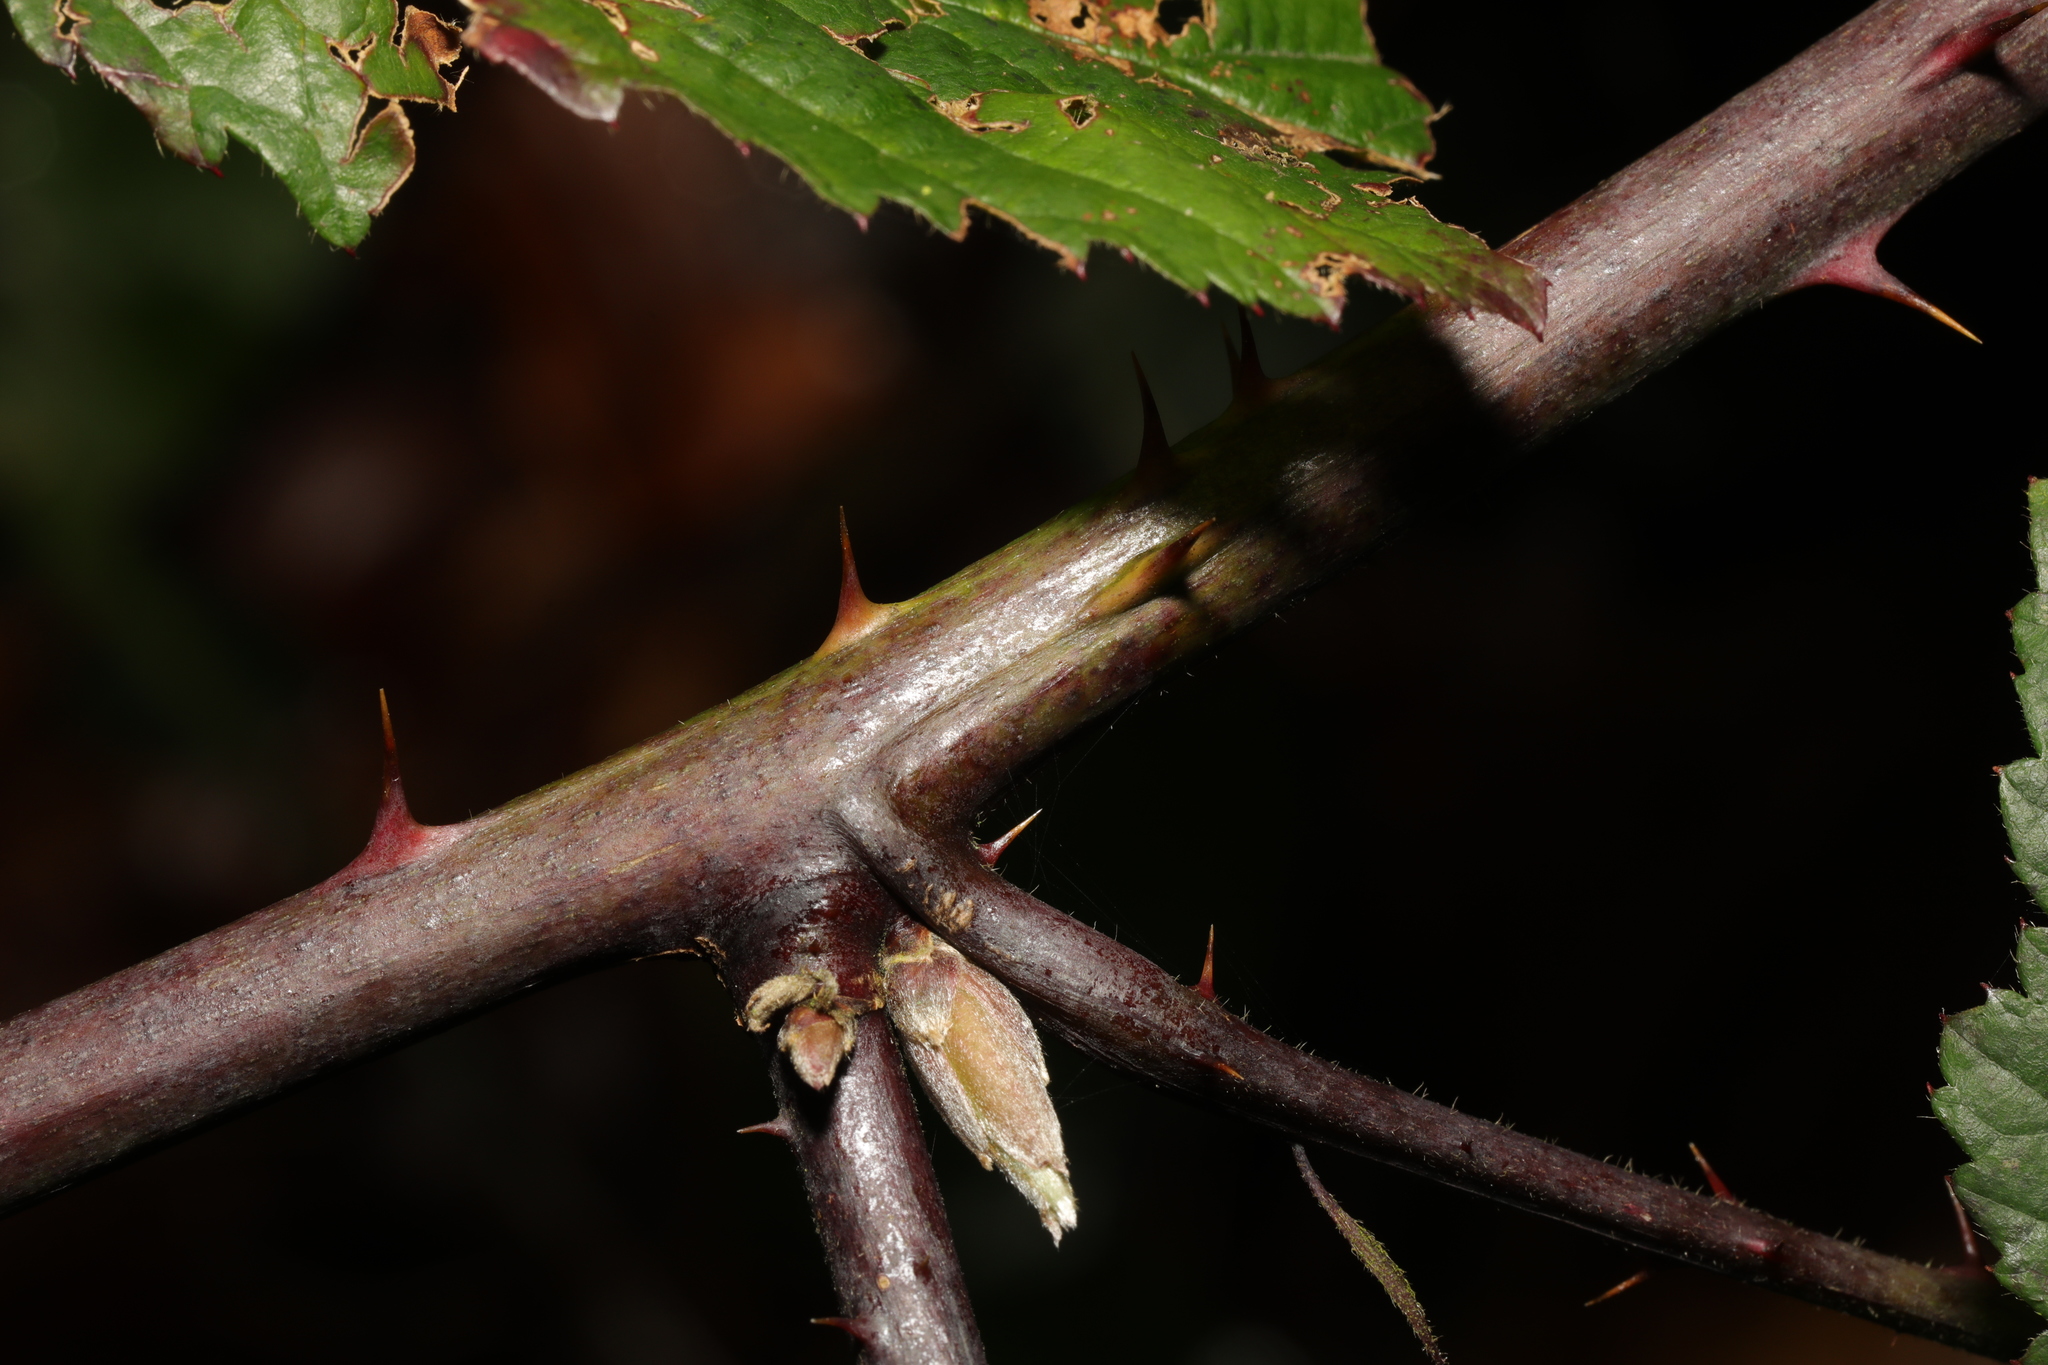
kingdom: Plantae
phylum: Tracheophyta
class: Magnoliopsida
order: Rosales
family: Rosaceae
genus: Rubus
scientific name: Rubus cissburiensis
